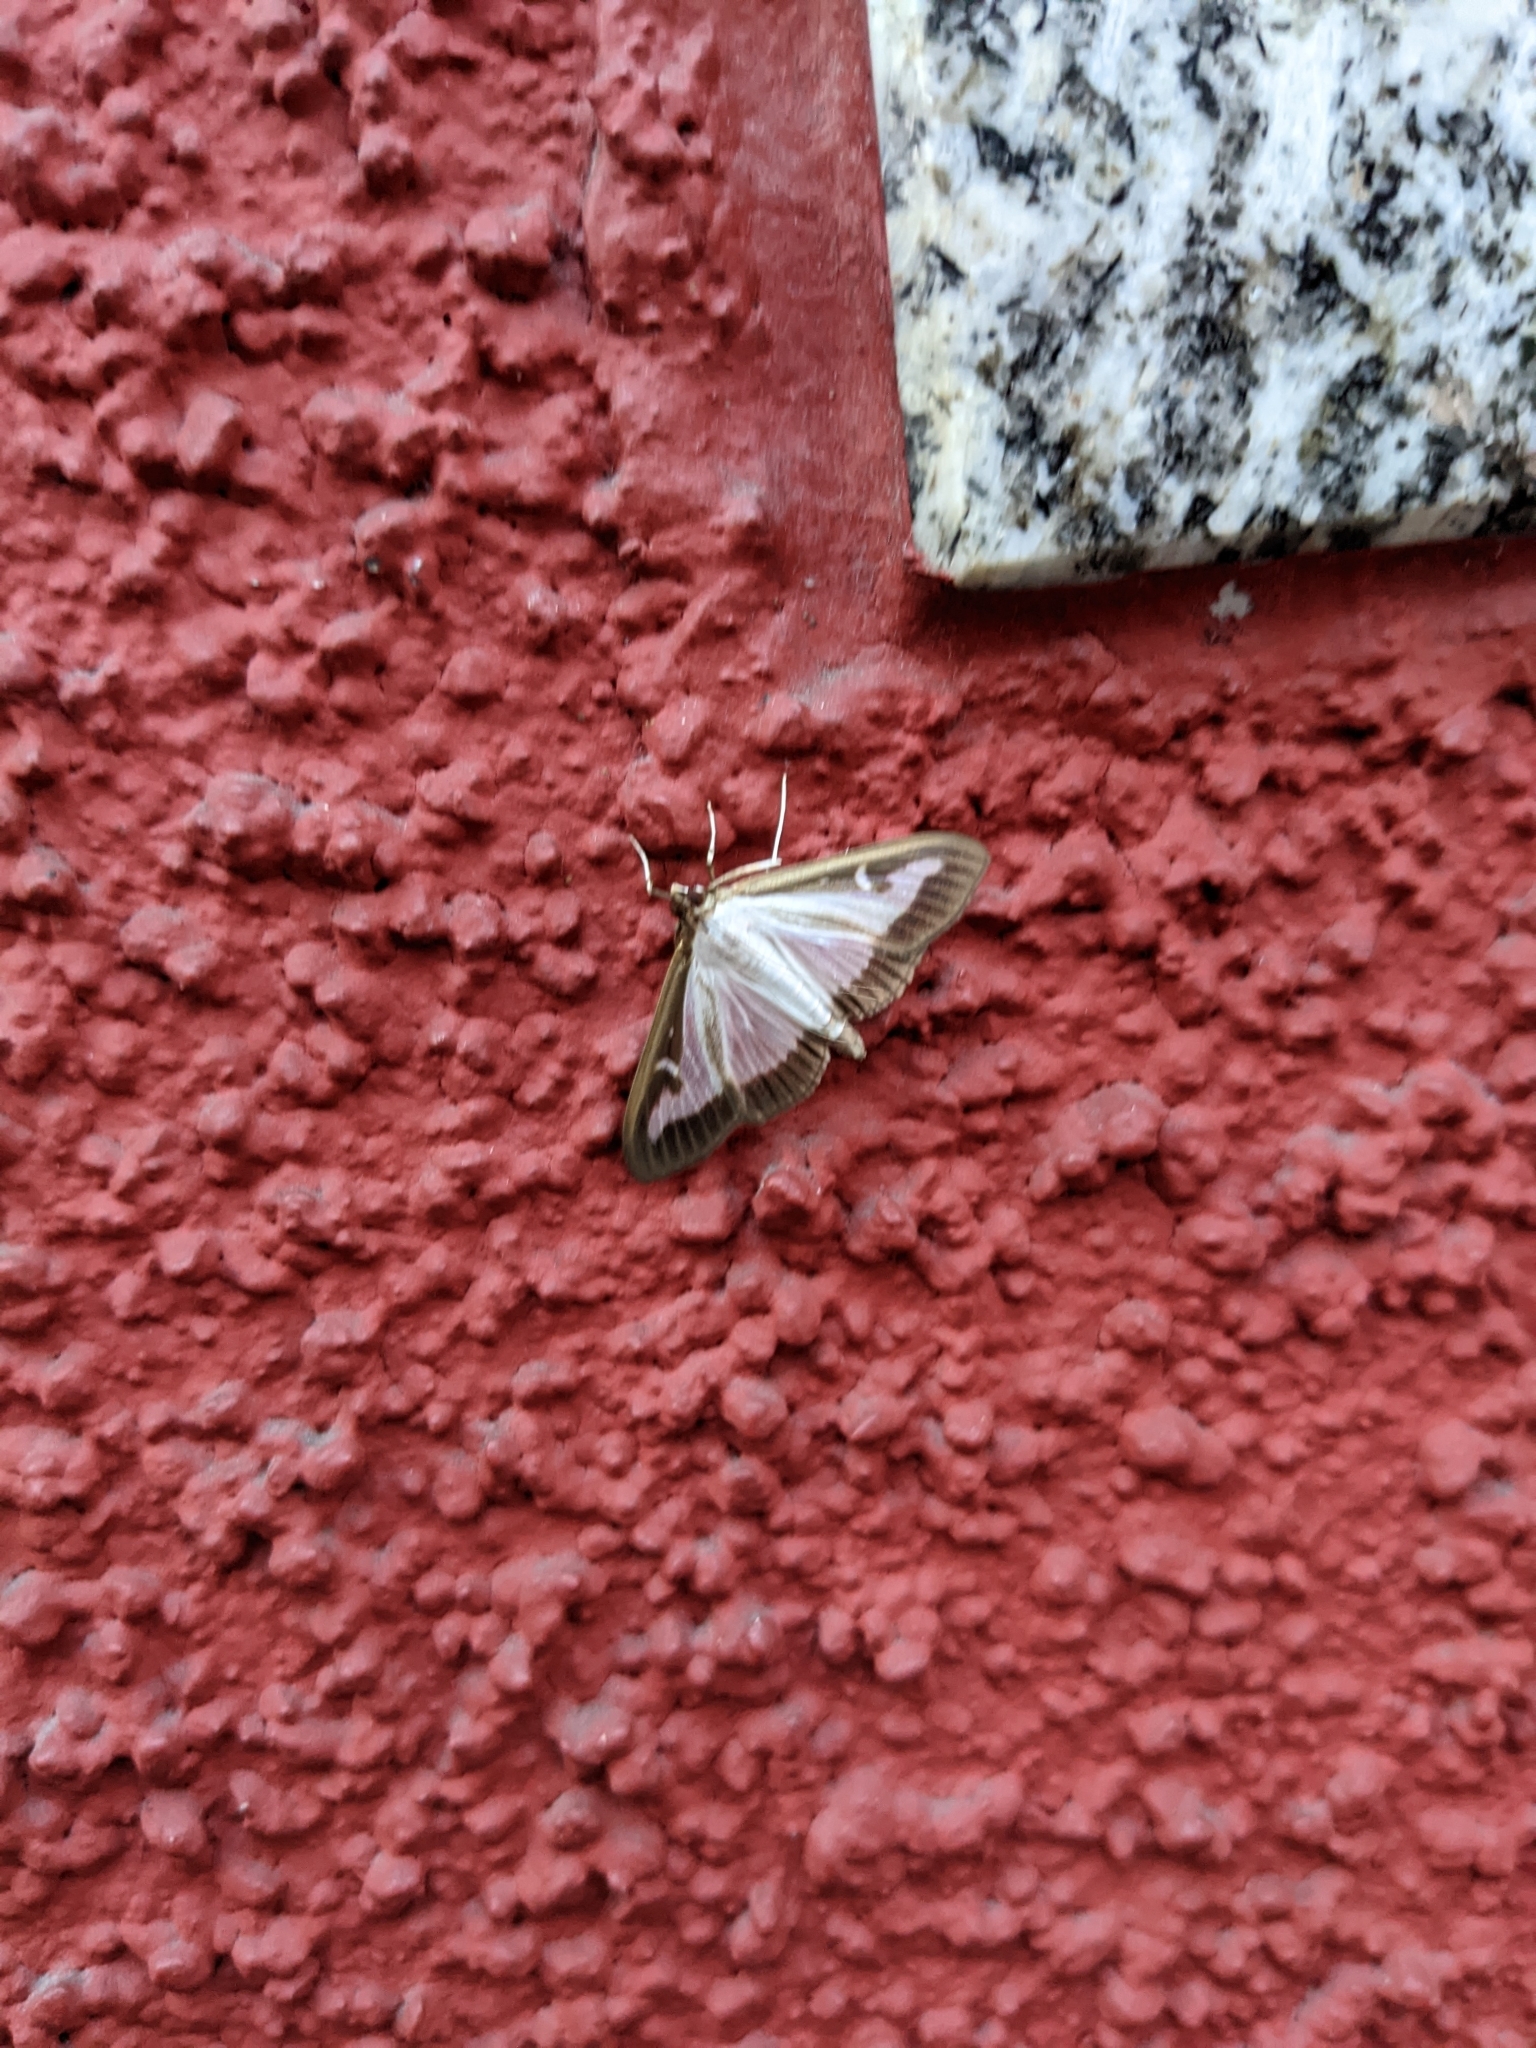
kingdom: Animalia
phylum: Arthropoda
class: Insecta
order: Lepidoptera
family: Crambidae
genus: Cydalima
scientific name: Cydalima perspectalis
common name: Box tree moth
